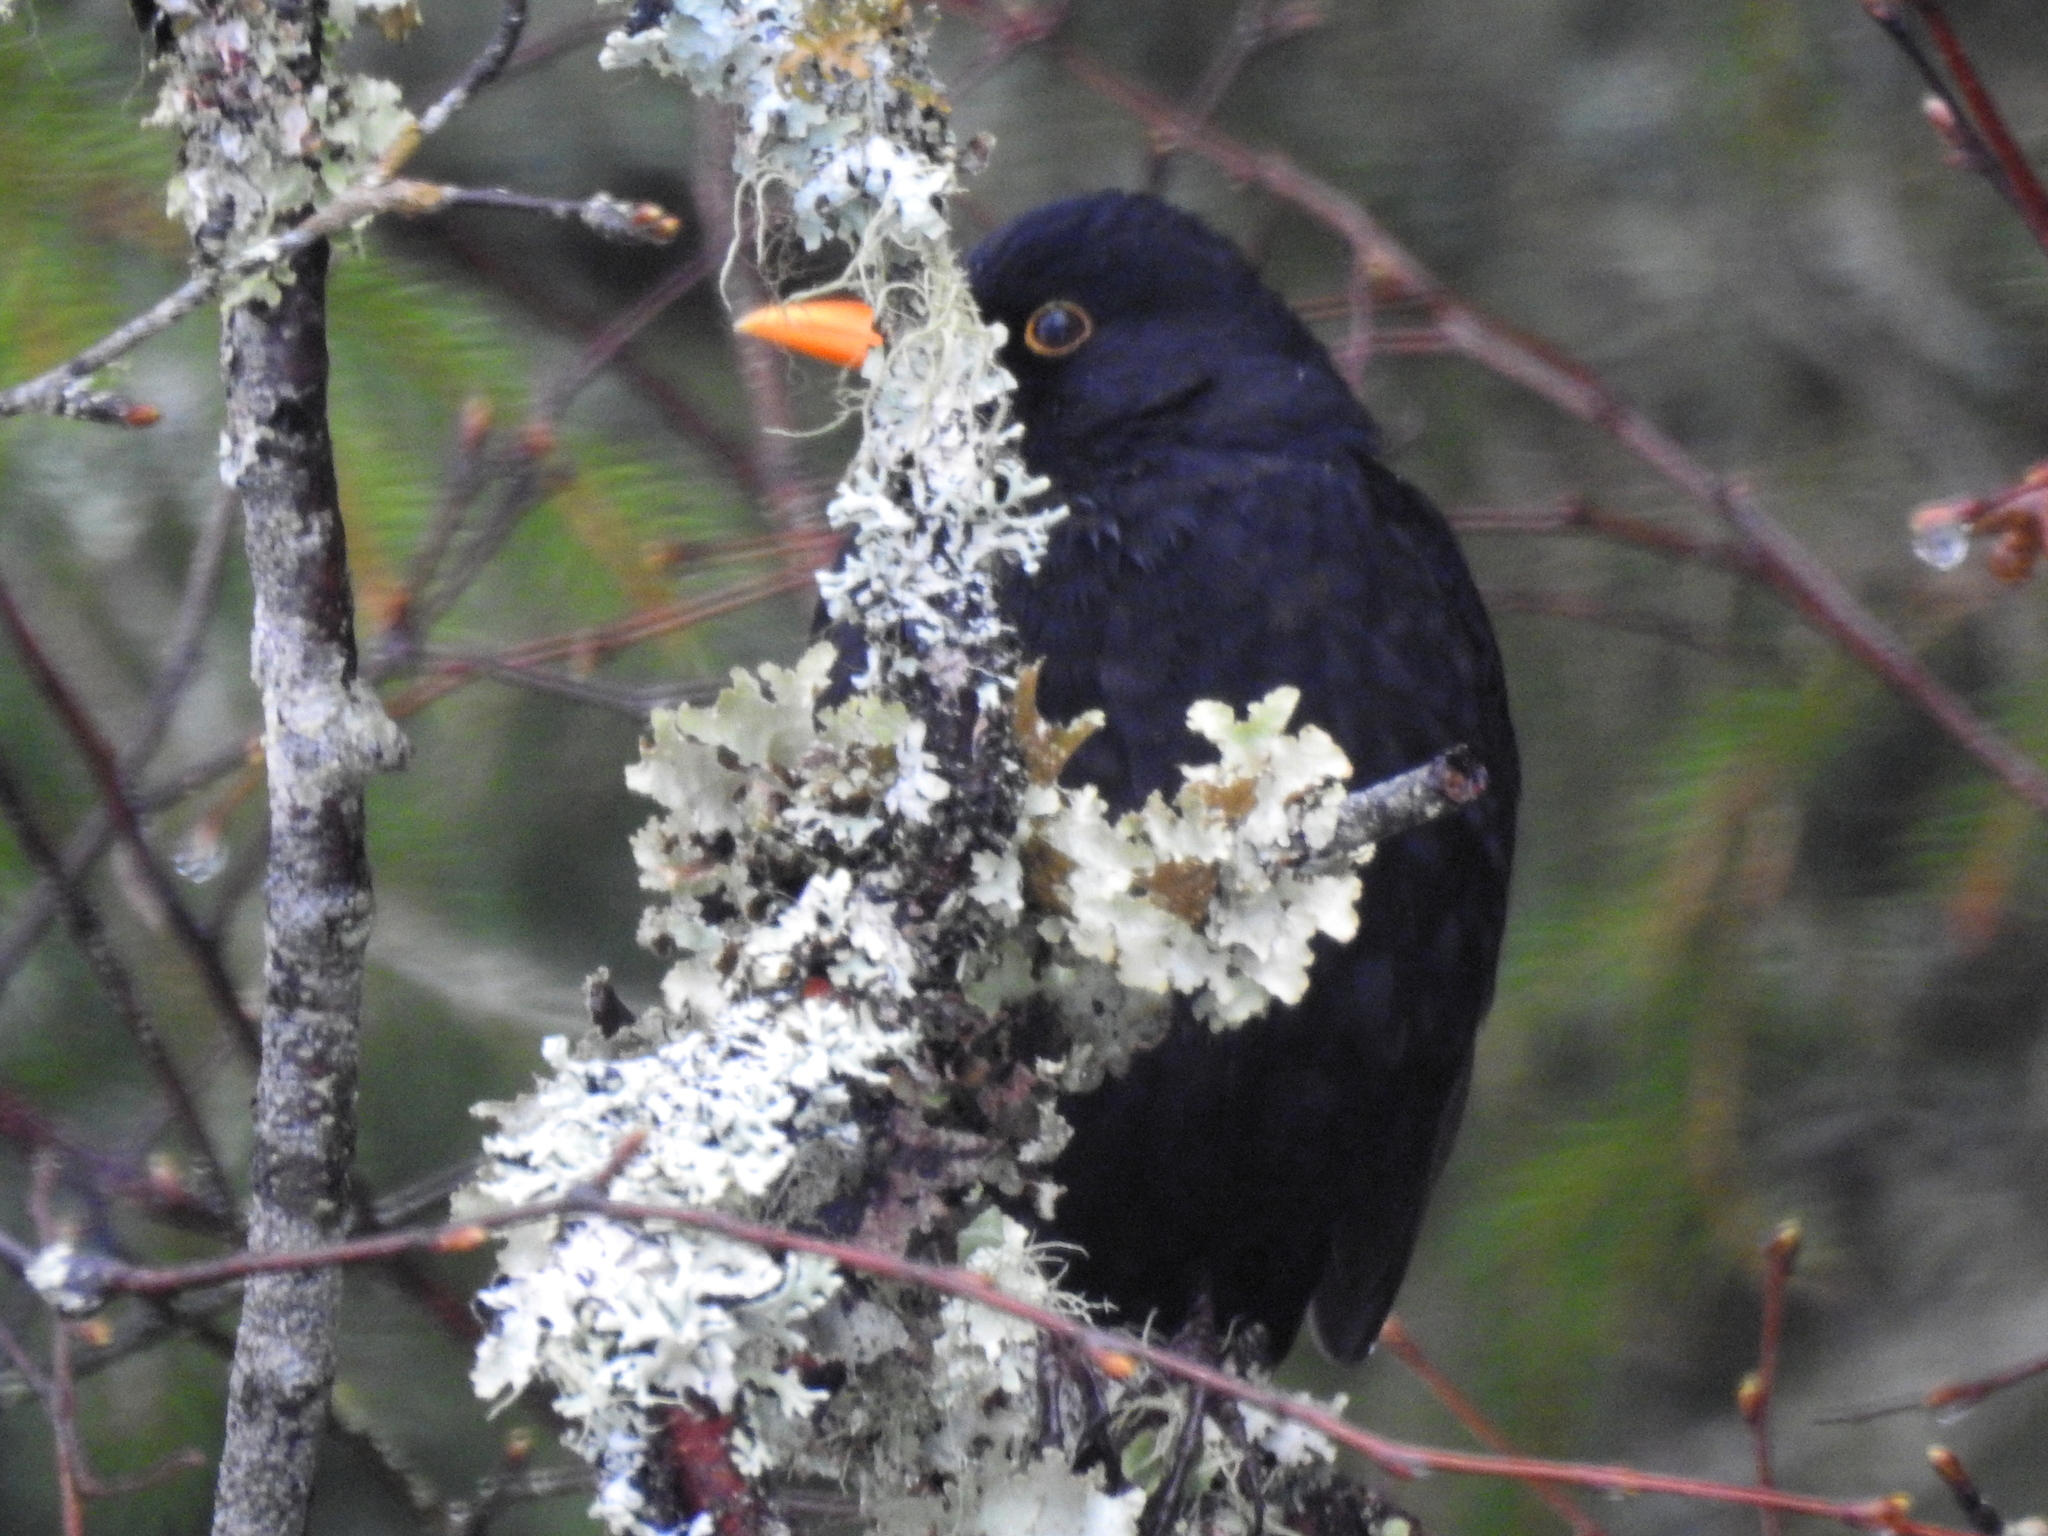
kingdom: Animalia
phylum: Chordata
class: Aves
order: Passeriformes
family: Turdidae
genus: Turdus
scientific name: Turdus merula
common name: Common blackbird
